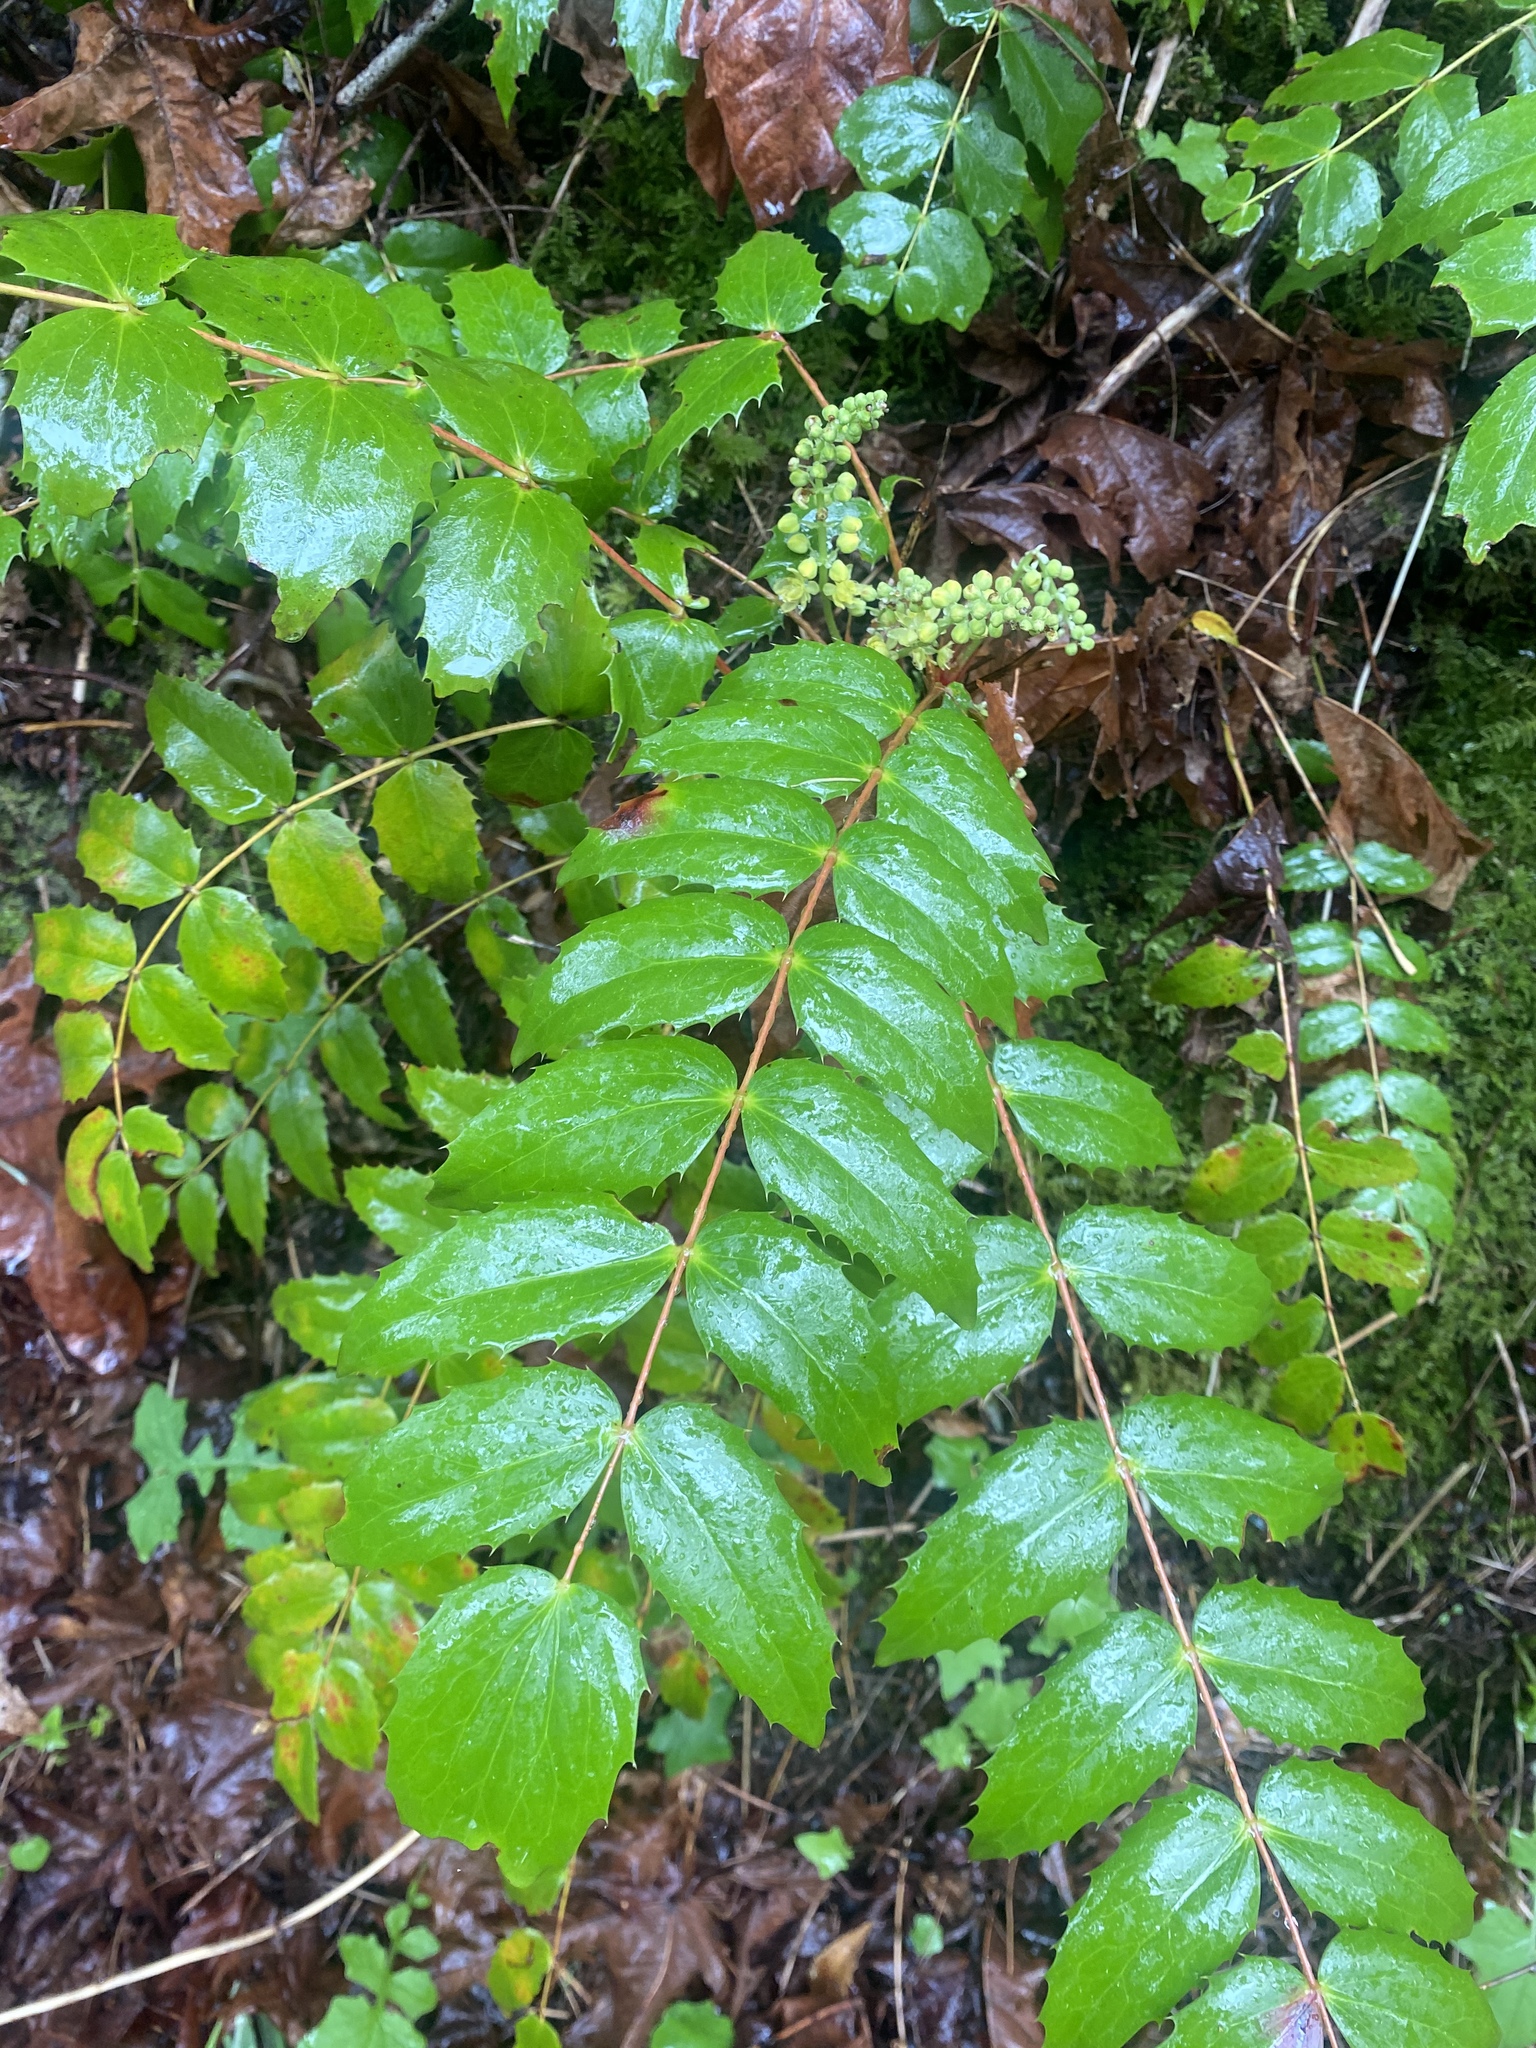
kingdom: Plantae
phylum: Tracheophyta
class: Magnoliopsida
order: Ranunculales
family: Berberidaceae
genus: Mahonia
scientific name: Mahonia nervosa
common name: Cascade oregon-grape
